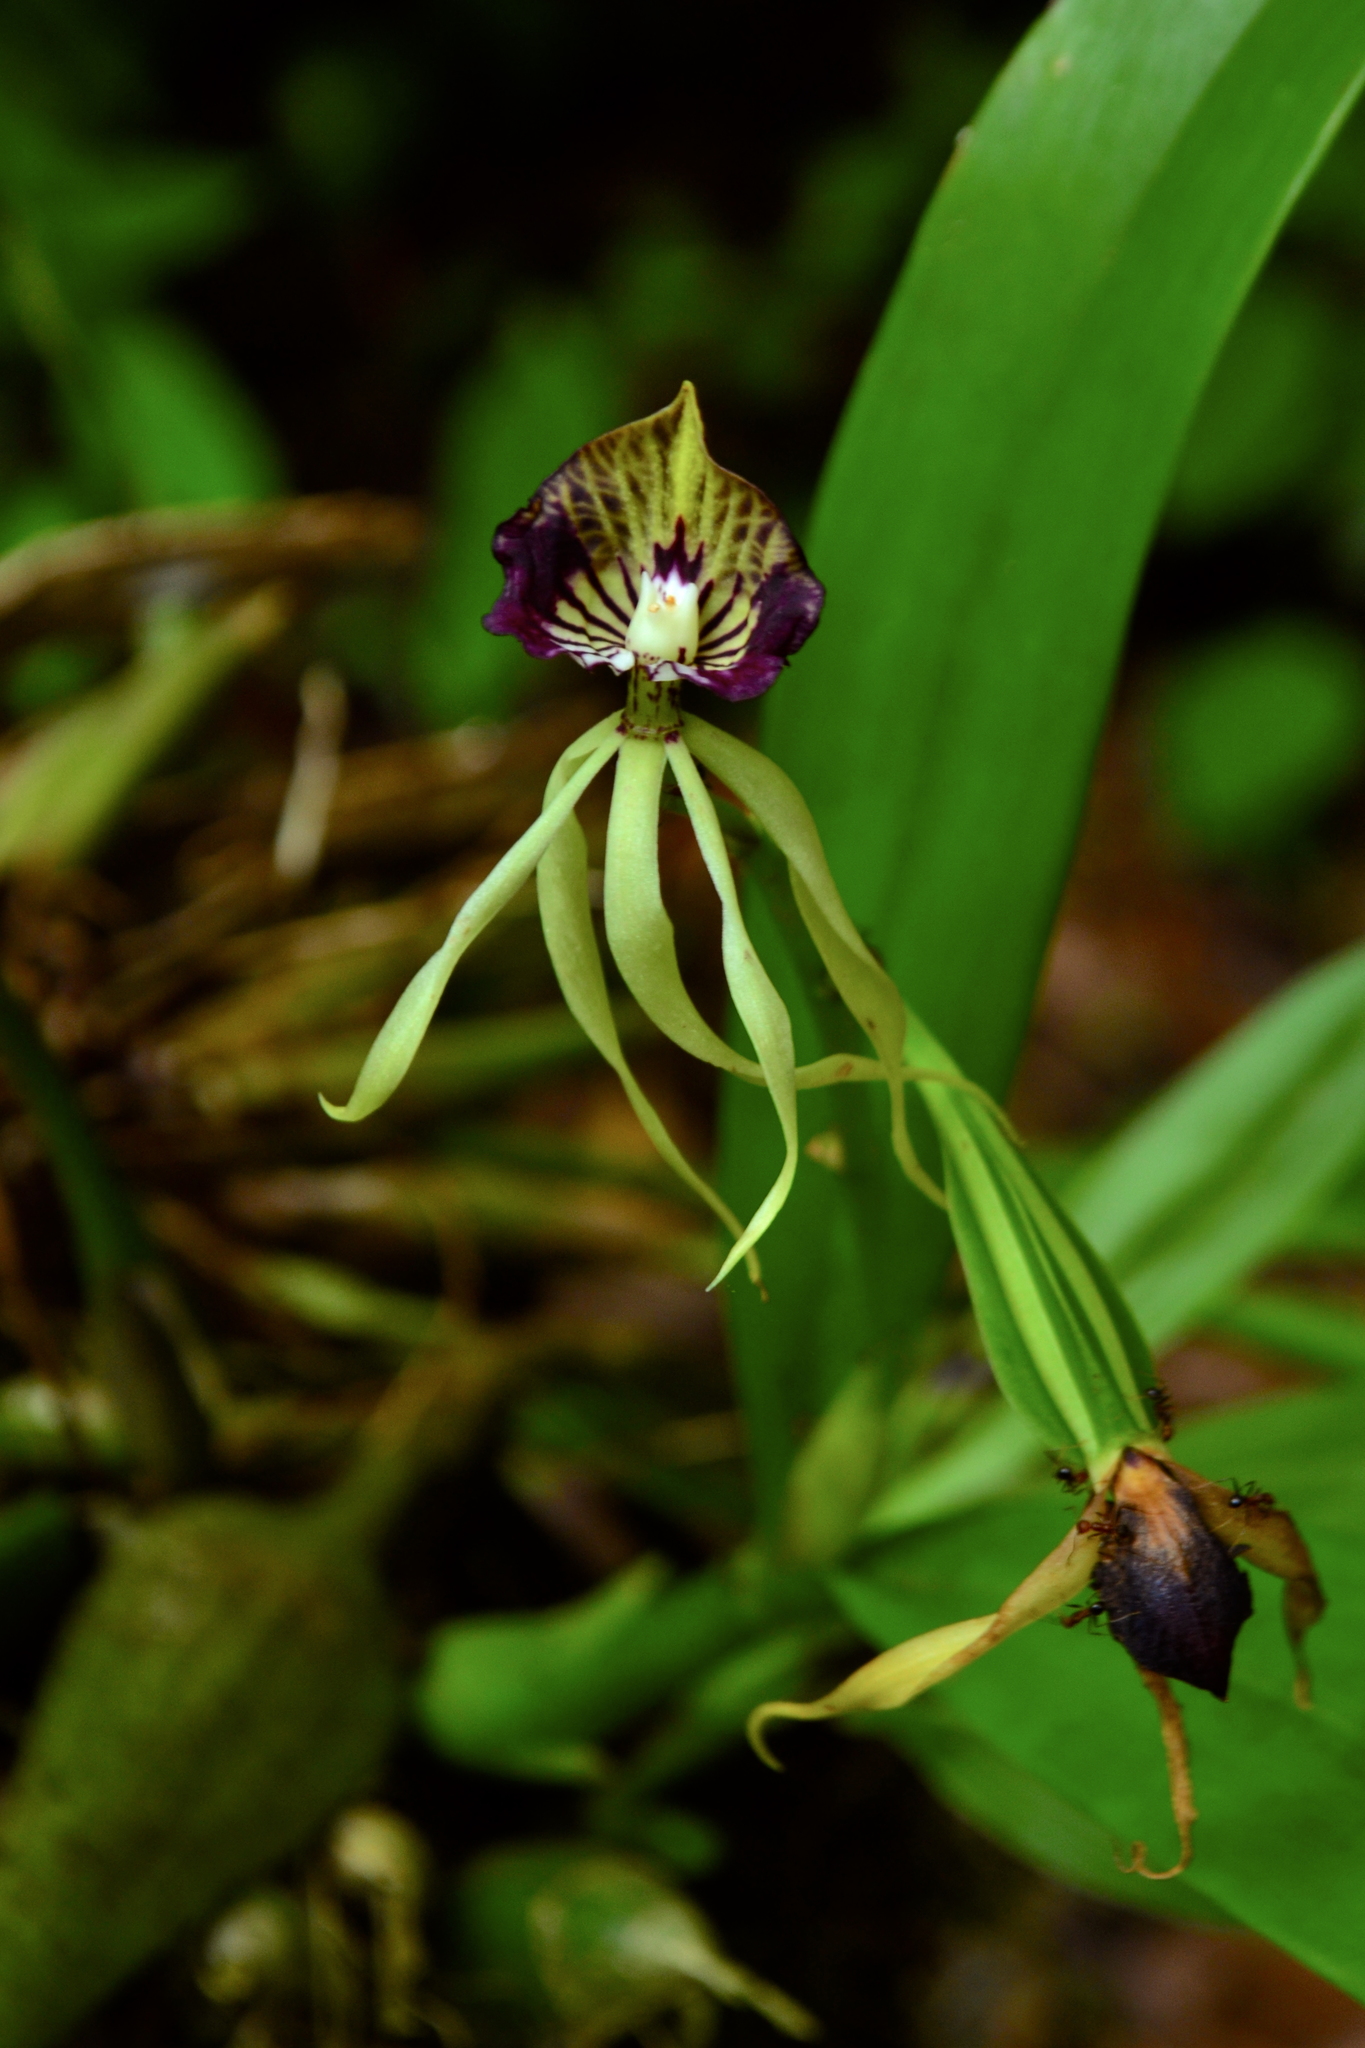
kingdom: Plantae
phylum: Tracheophyta
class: Liliopsida
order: Asparagales
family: Orchidaceae
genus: Prosthechea
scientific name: Prosthechea cochleata
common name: Clamshell orchid
